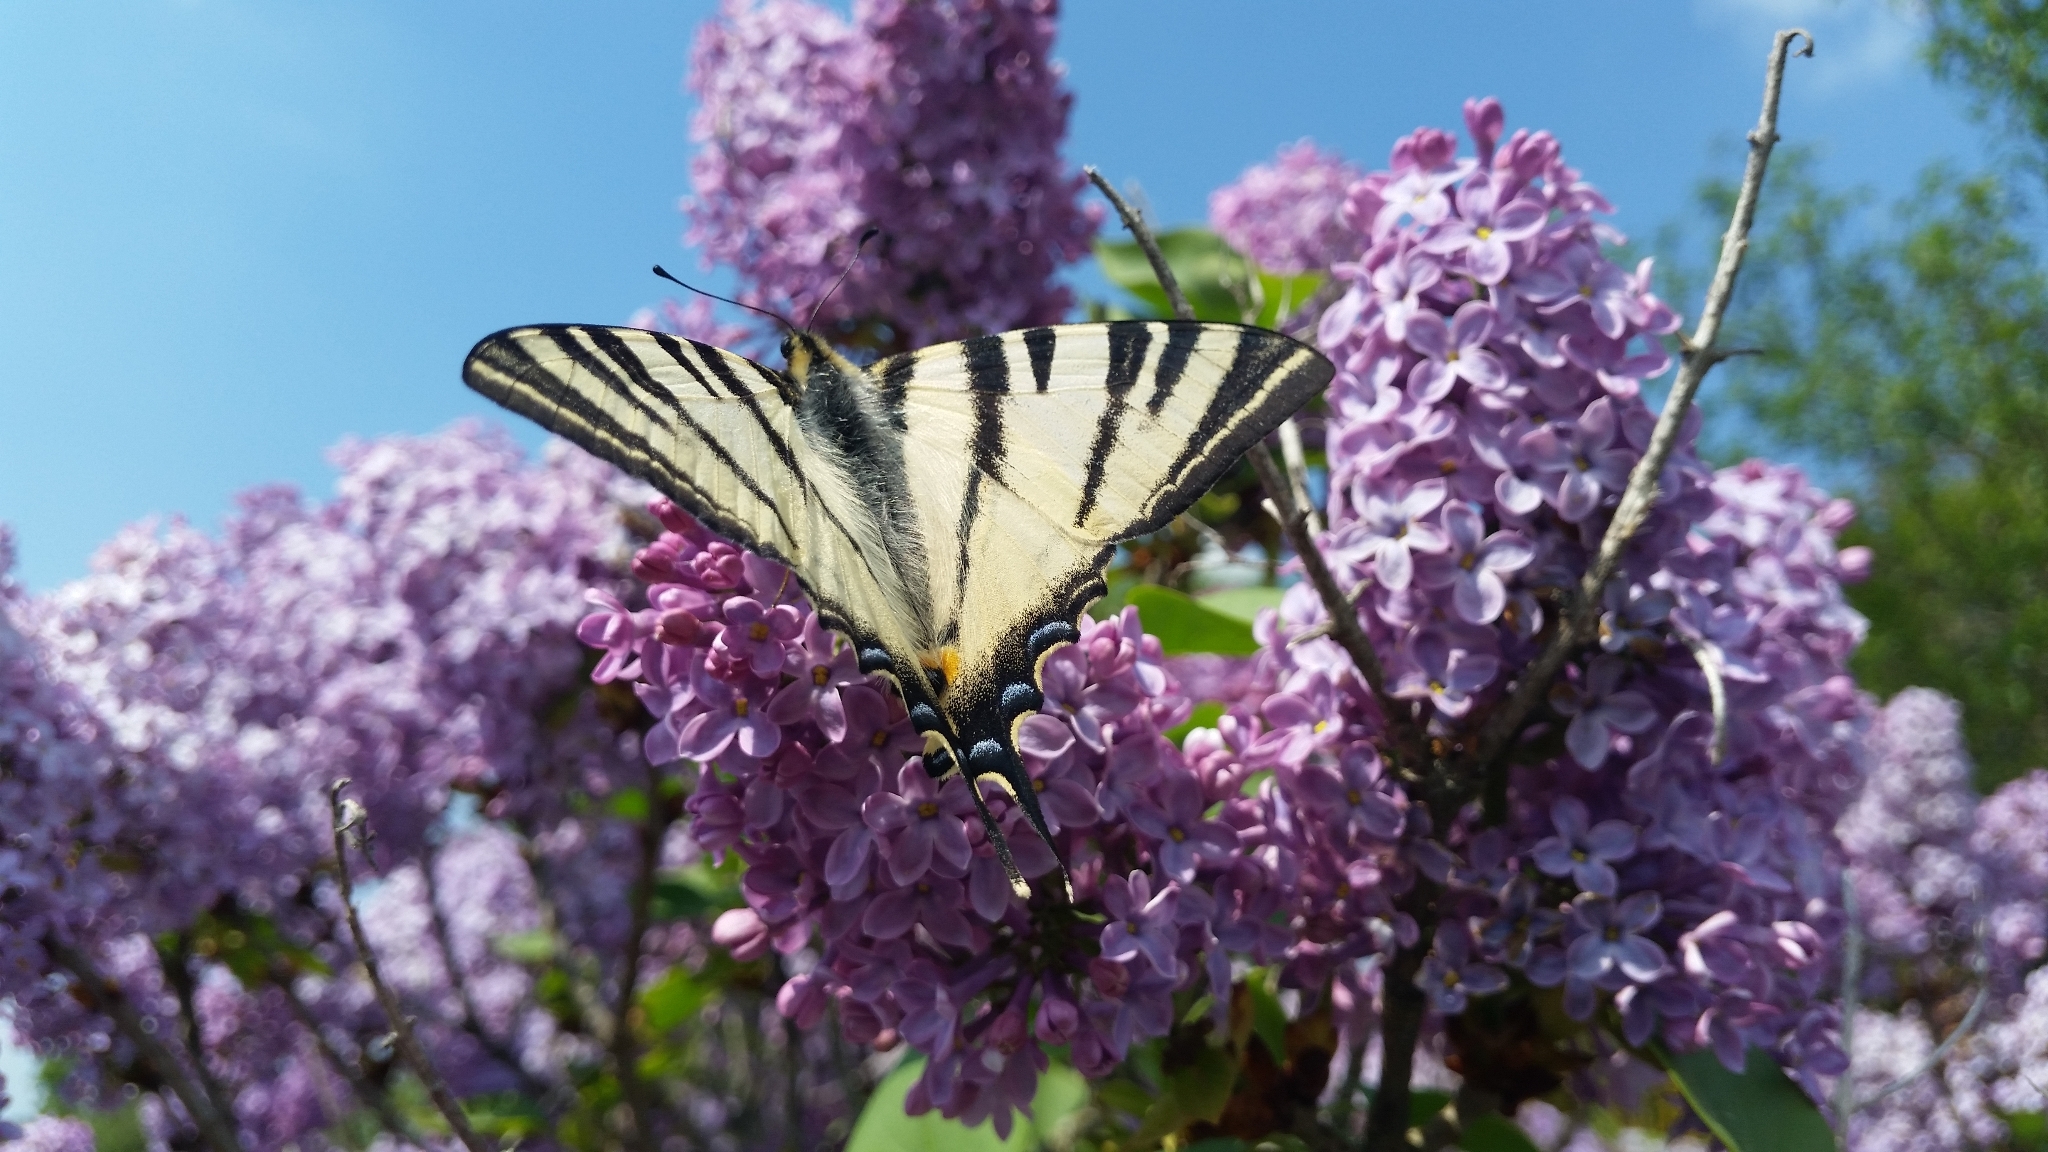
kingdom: Animalia
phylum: Arthropoda
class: Insecta
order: Lepidoptera
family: Papilionidae
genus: Iphiclides
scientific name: Iphiclides podalirius
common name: Scarce swallowtail
